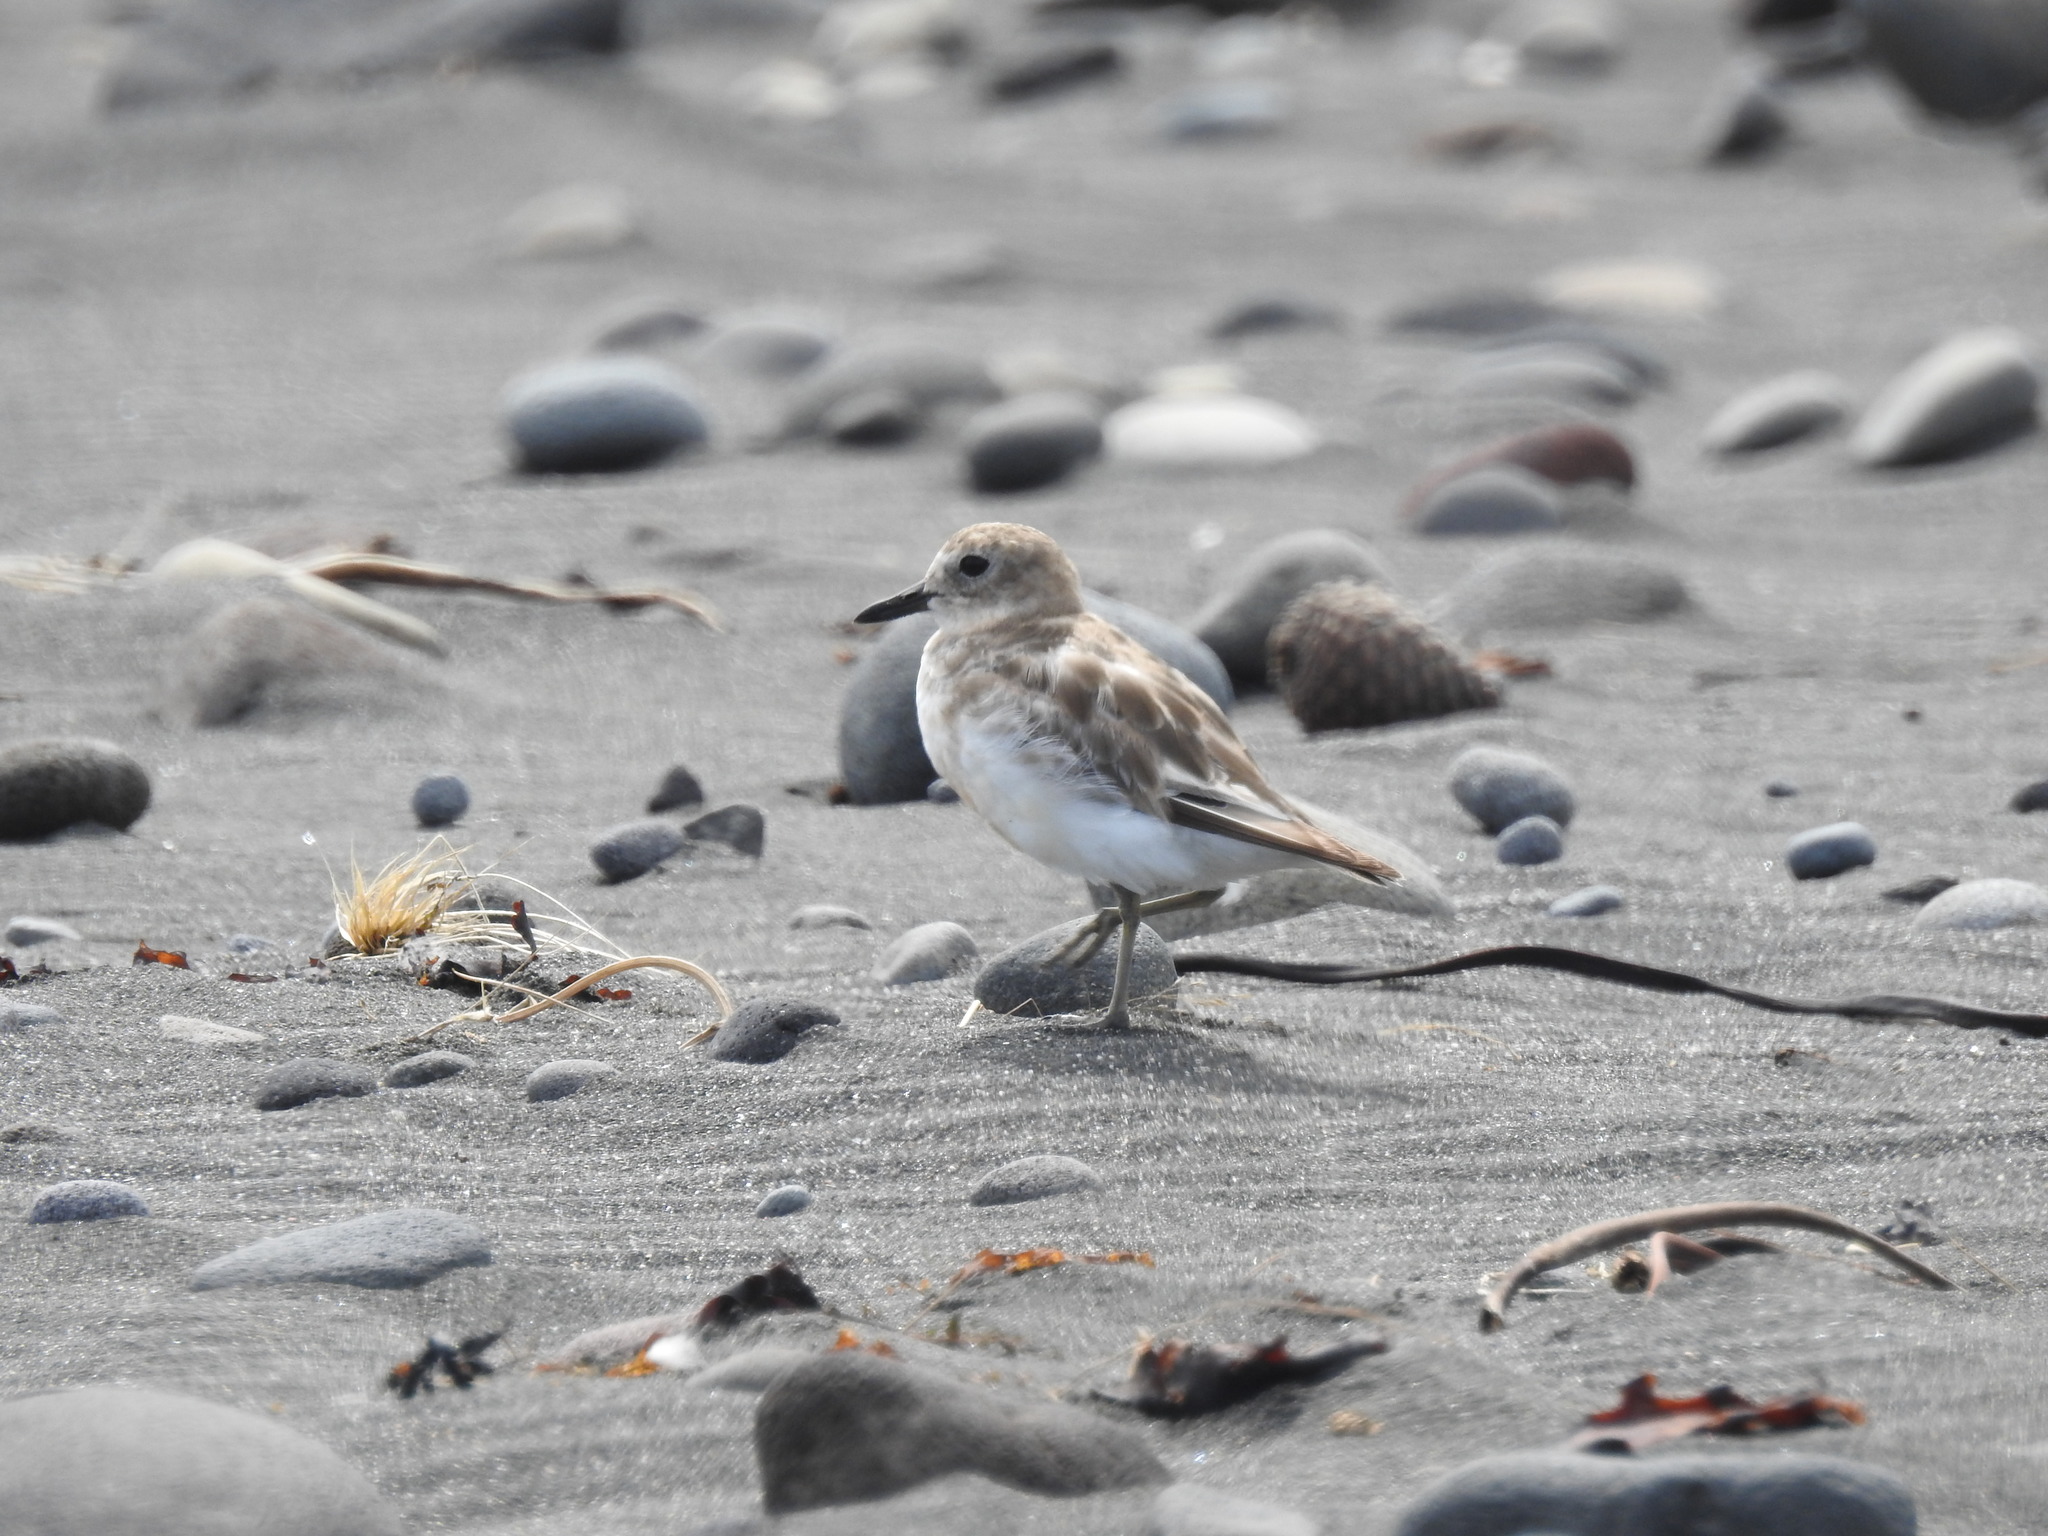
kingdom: Animalia
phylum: Chordata
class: Aves
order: Charadriiformes
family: Charadriidae
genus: Anarhynchus
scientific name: Anarhynchus
